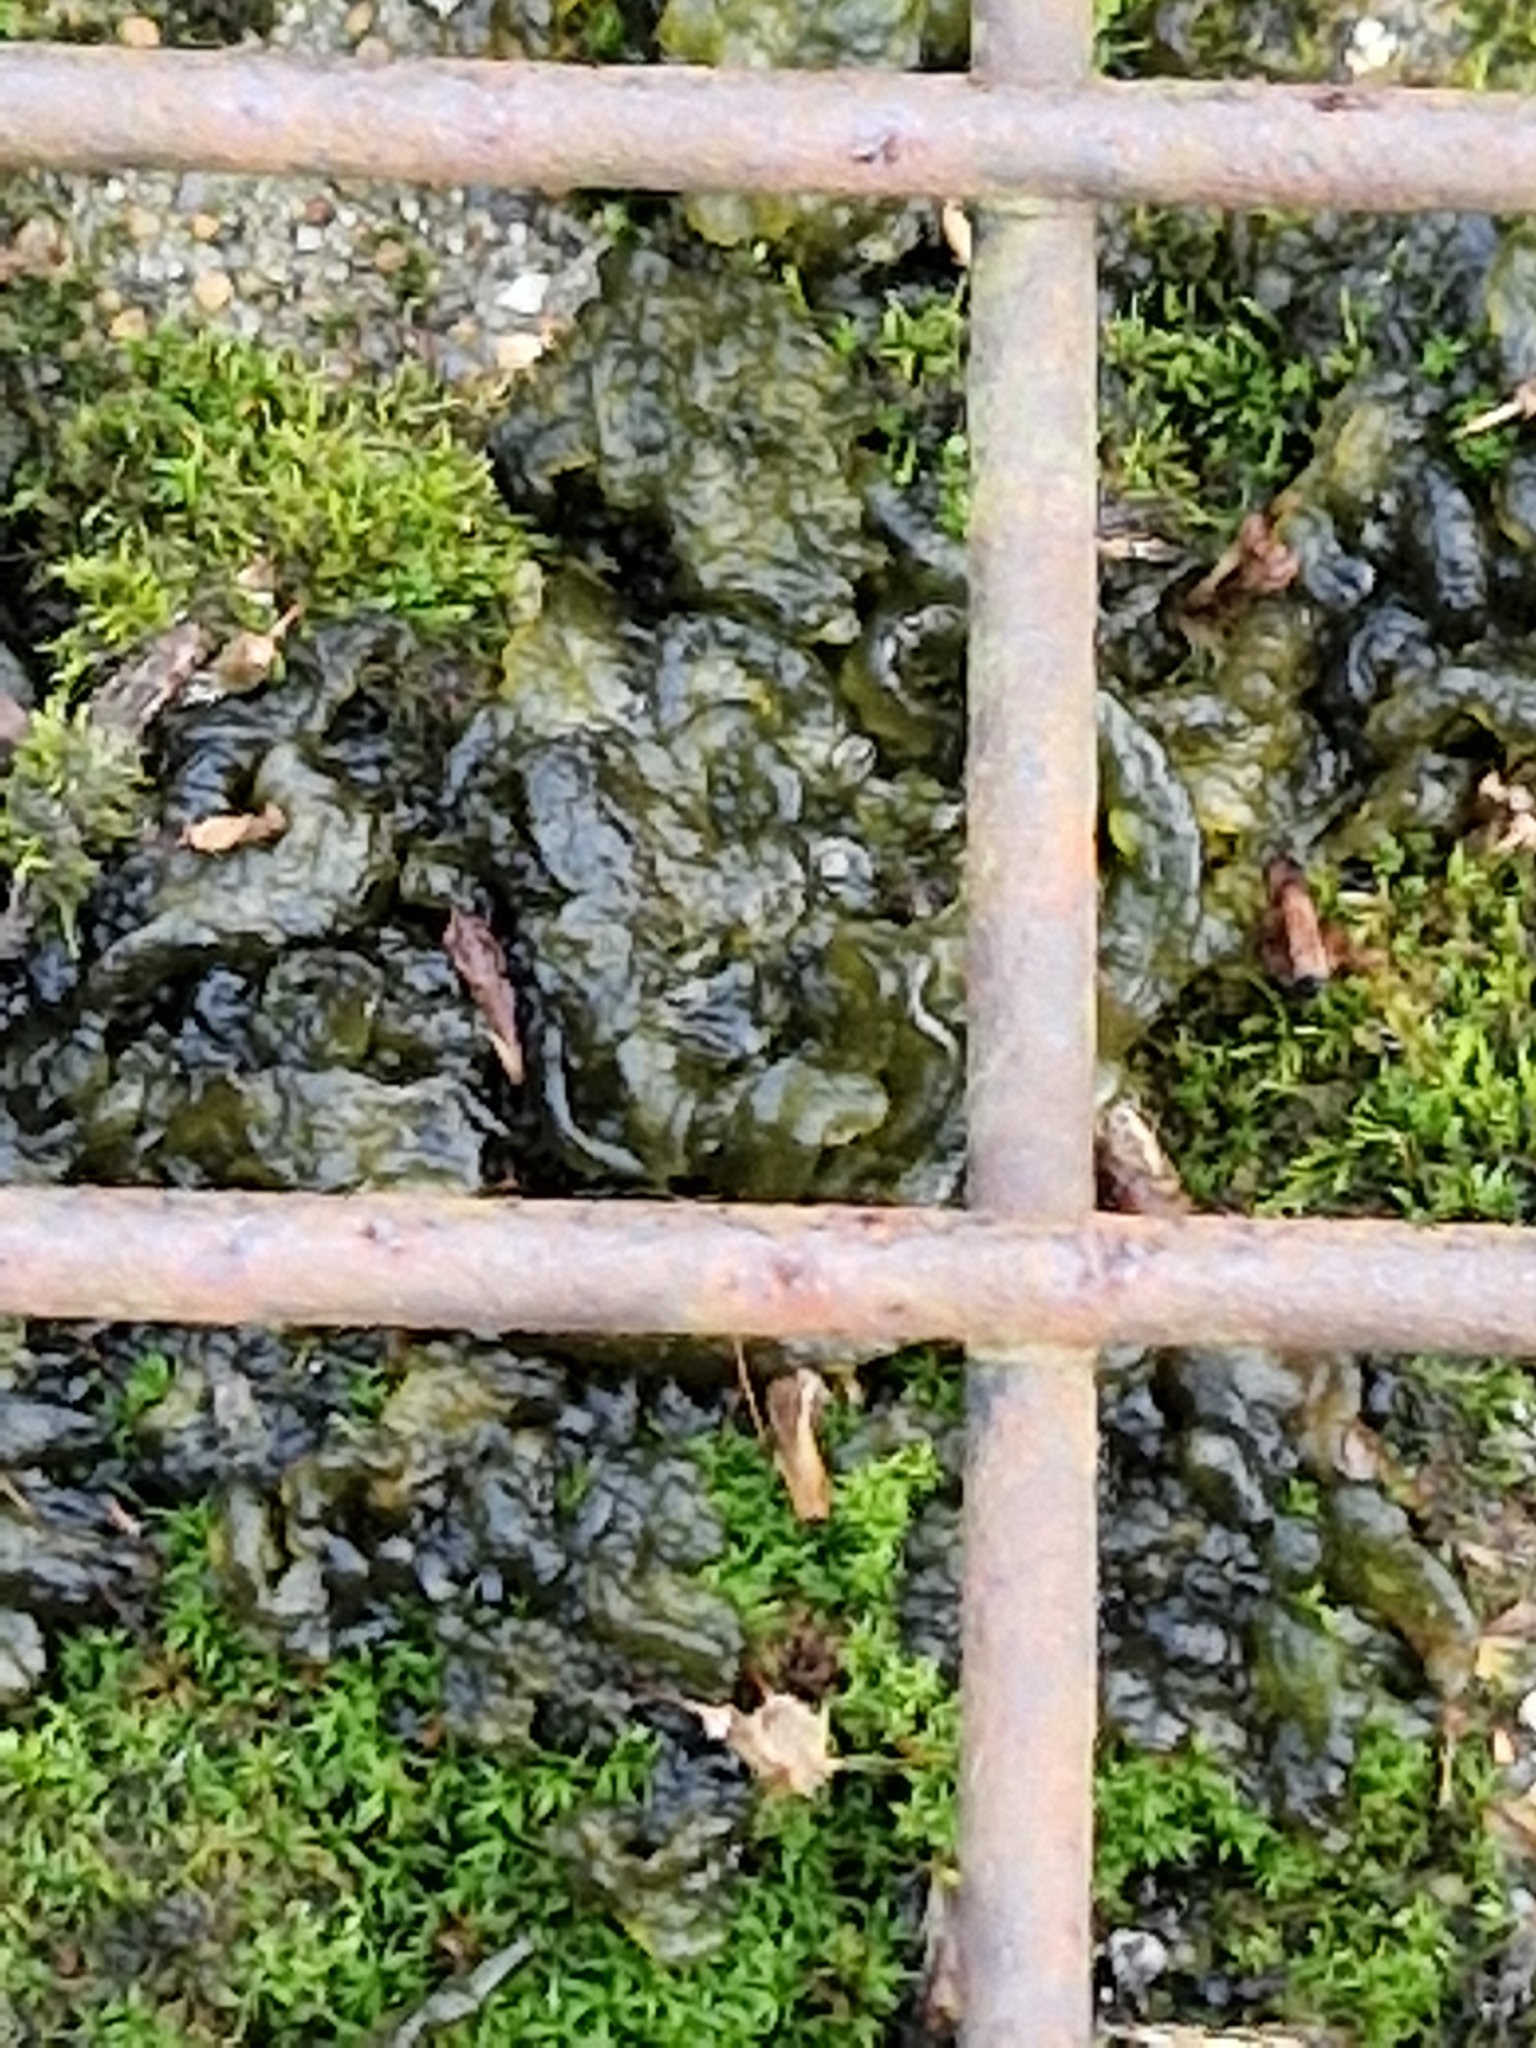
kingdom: Bacteria
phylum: Cyanobacteria
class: Cyanobacteriia
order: Cyanobacteriales
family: Nostocaceae
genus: Nostoc
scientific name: Nostoc commune
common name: Star jelly
